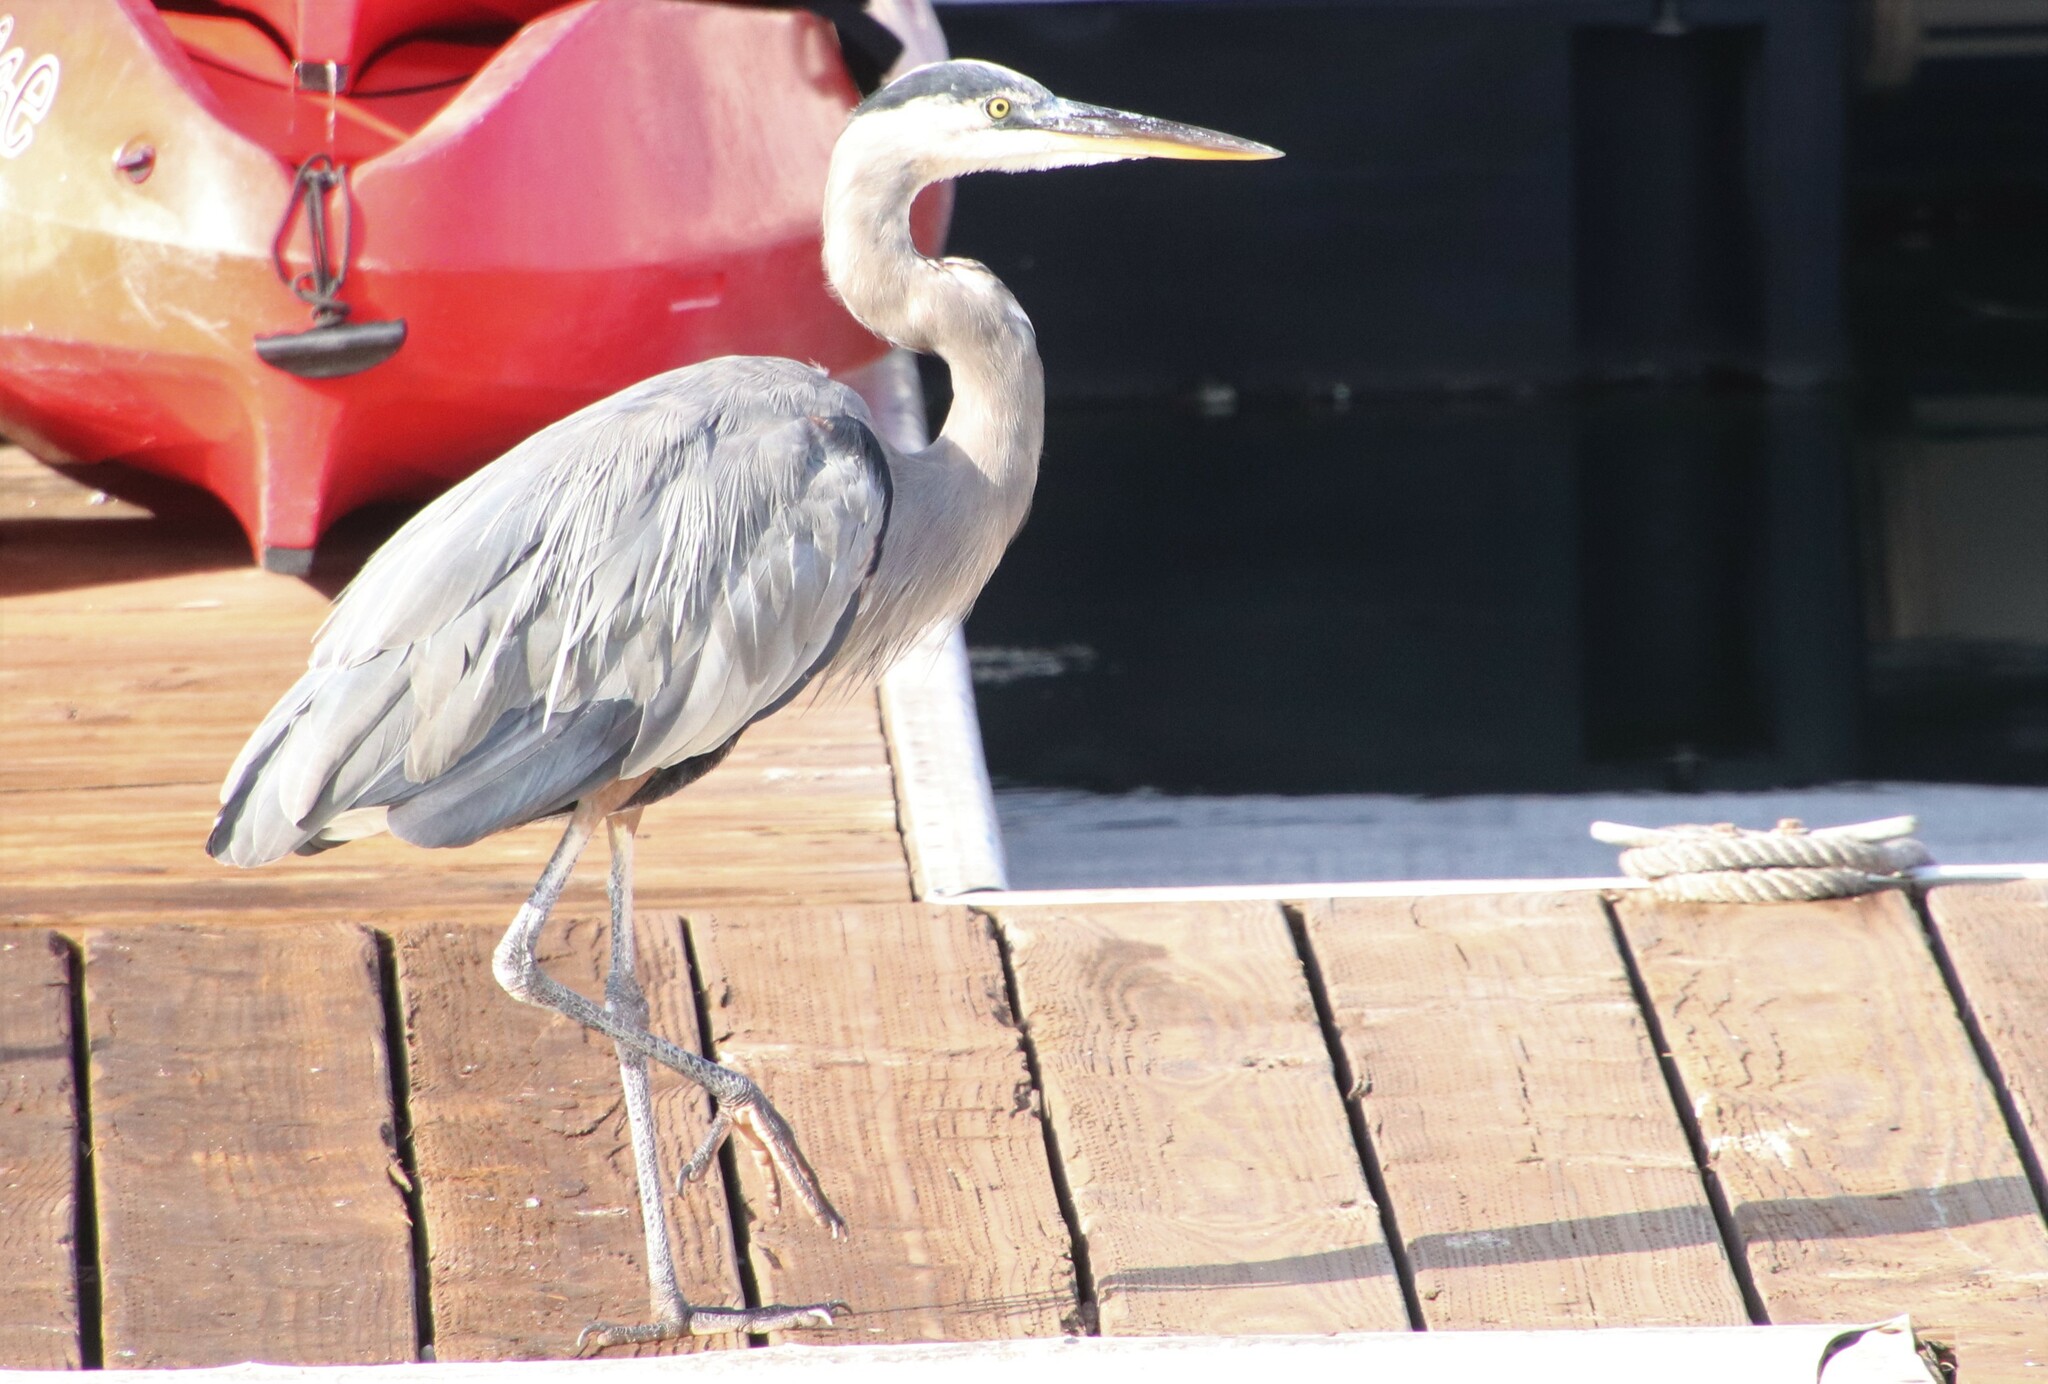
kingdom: Animalia
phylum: Chordata
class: Aves
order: Pelecaniformes
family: Ardeidae
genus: Ardea
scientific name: Ardea herodias
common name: Great blue heron
